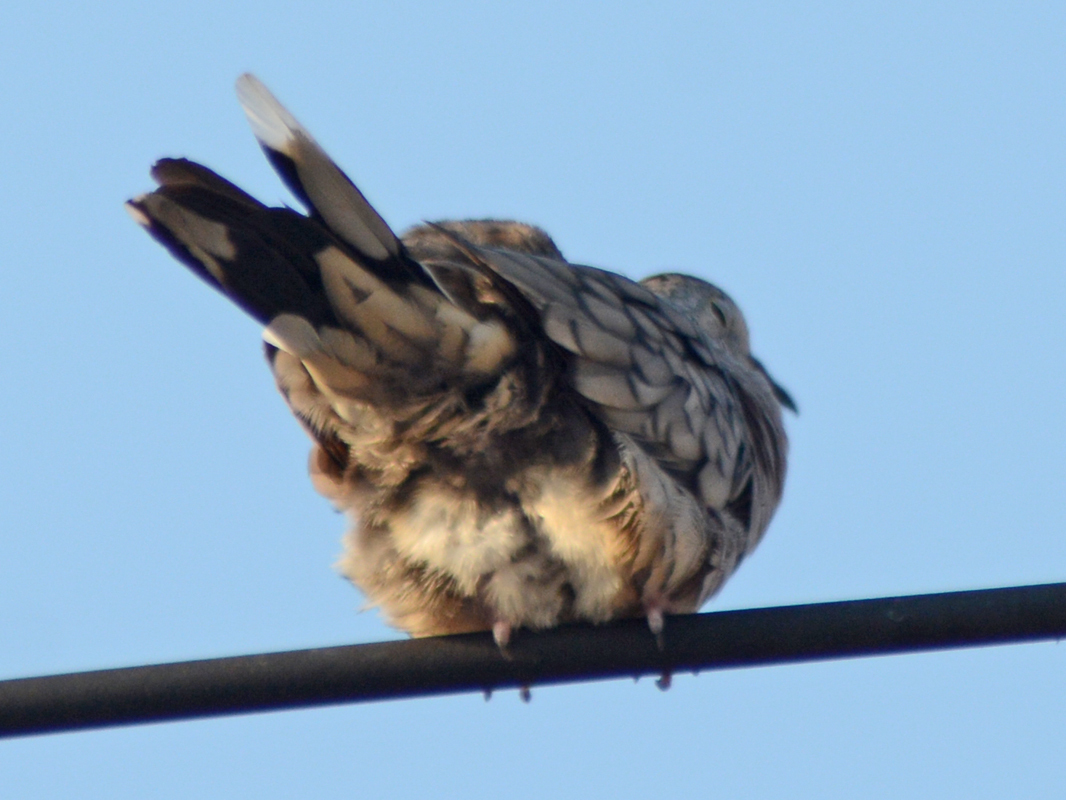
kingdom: Animalia
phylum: Chordata
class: Aves
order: Columbiformes
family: Columbidae
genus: Columbina
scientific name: Columbina inca
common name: Inca dove
